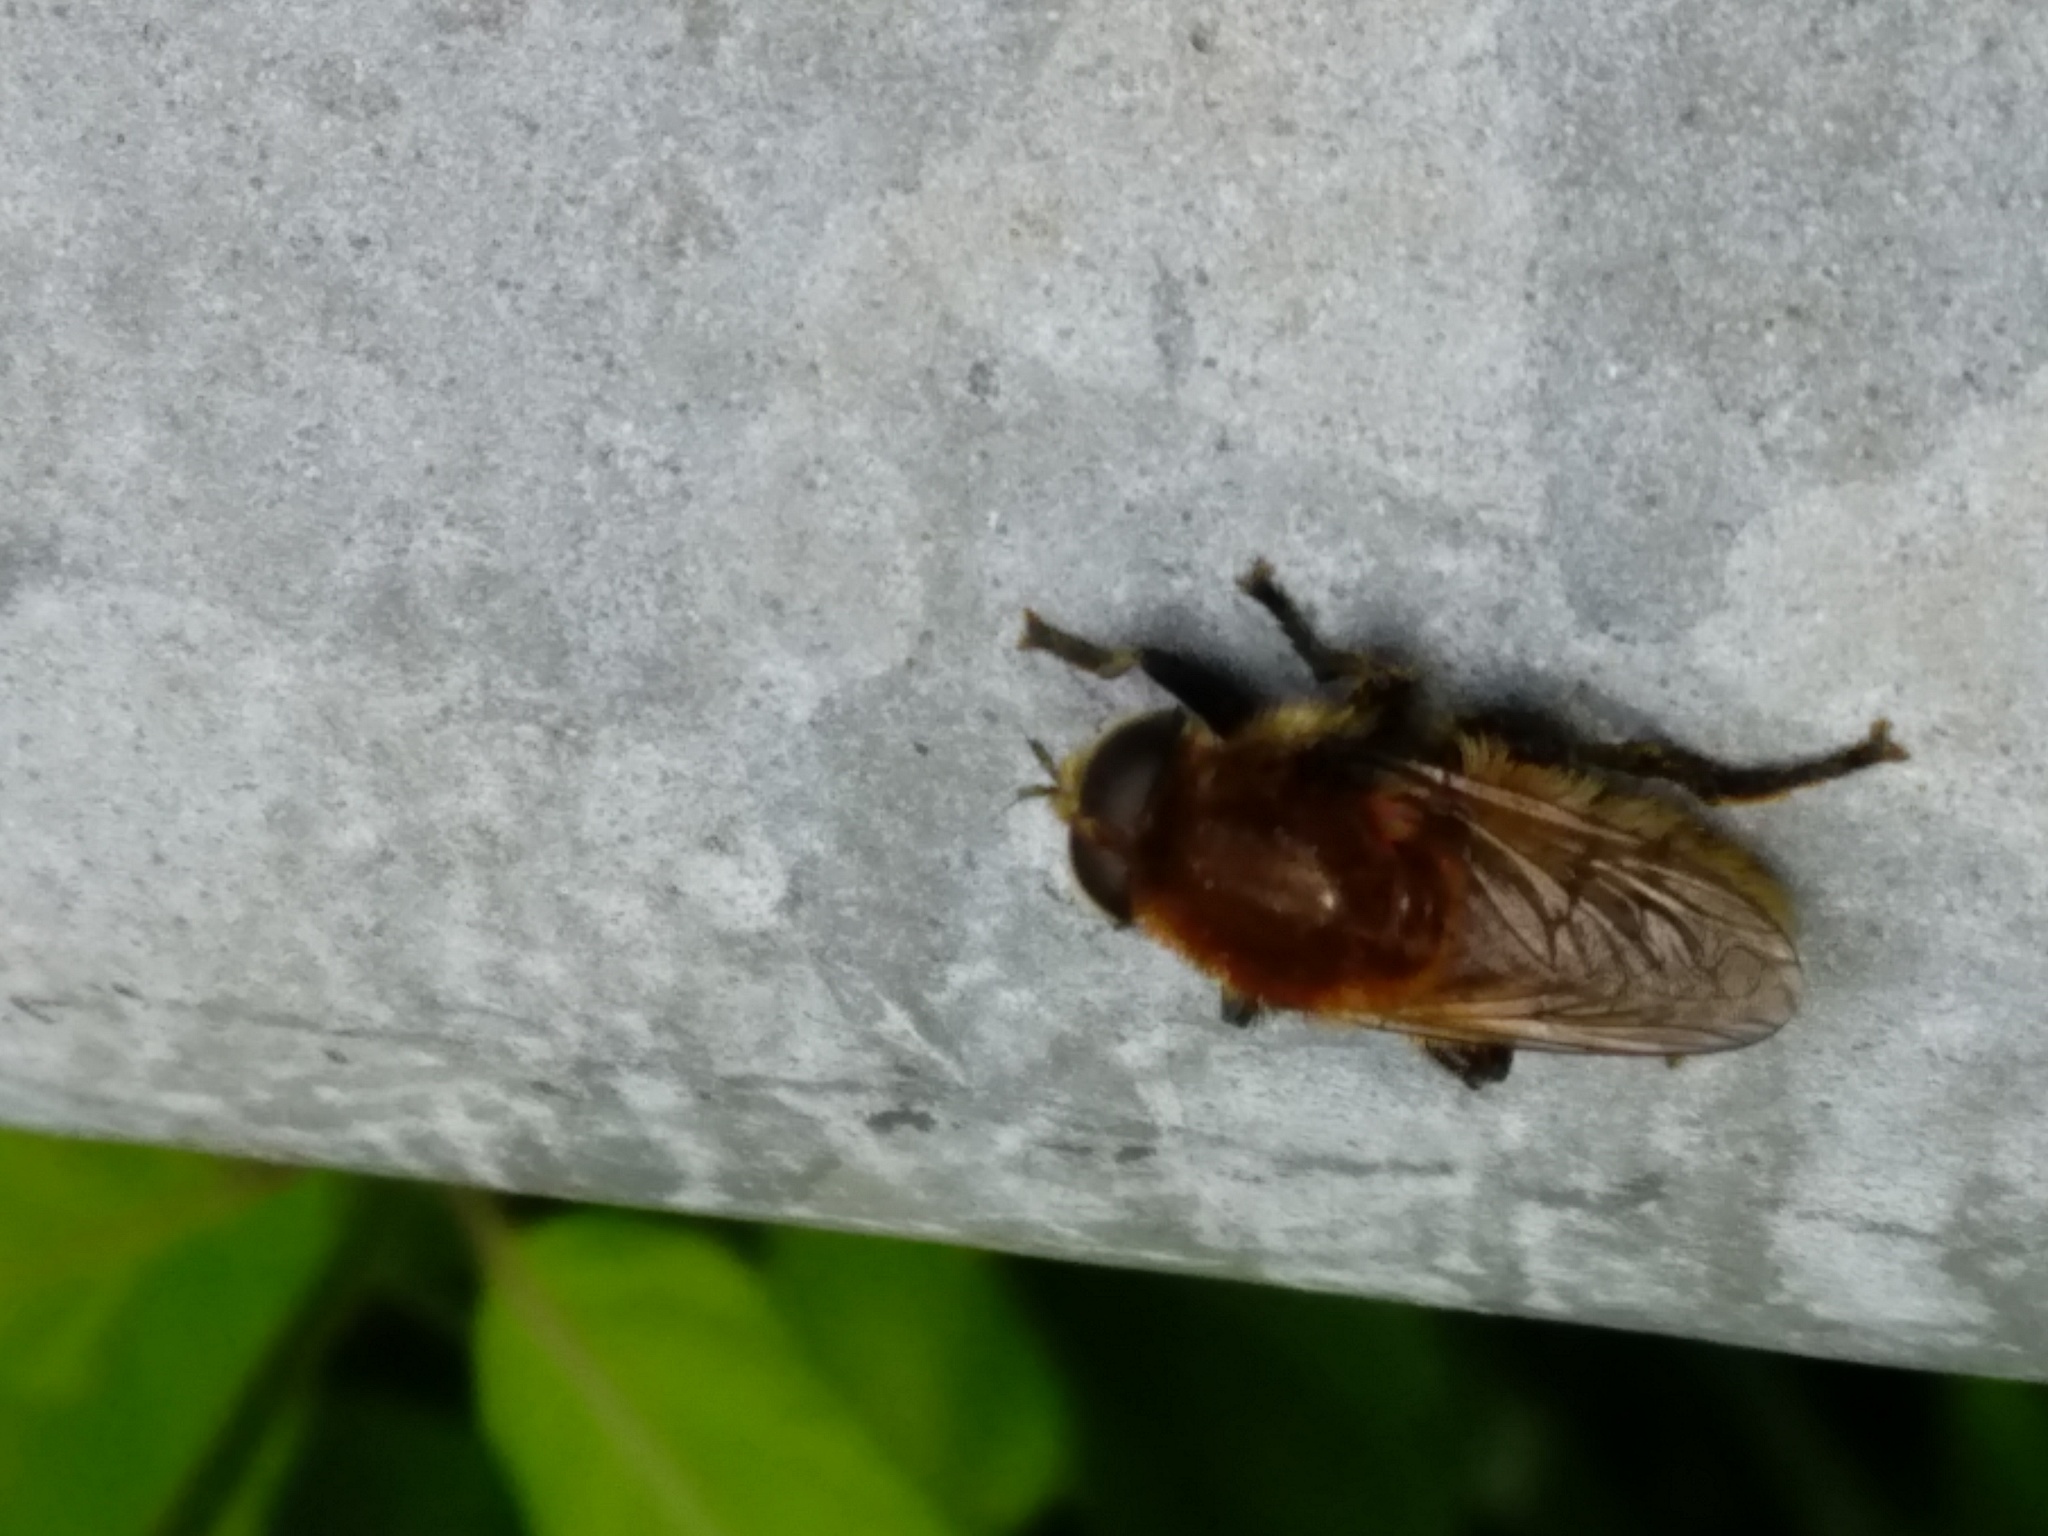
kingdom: Animalia
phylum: Arthropoda
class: Insecta
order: Diptera
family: Syrphidae
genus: Merodon
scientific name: Merodon equestris
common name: Greater bulb-fly
